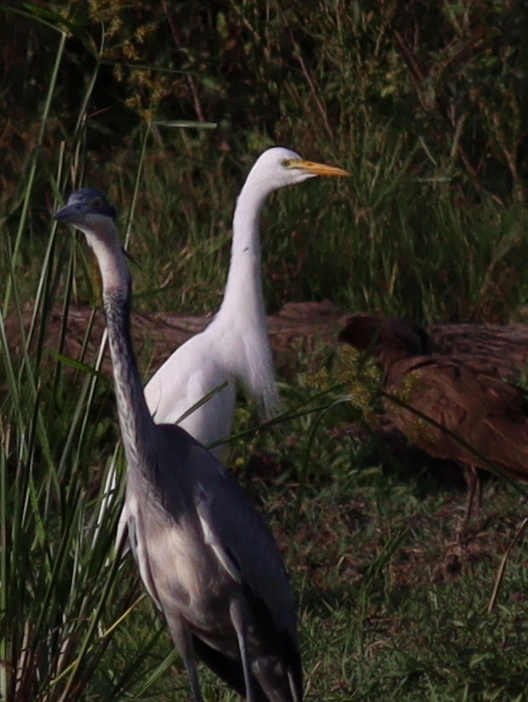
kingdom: Animalia
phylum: Chordata
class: Aves
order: Pelecaniformes
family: Ardeidae
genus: Egretta
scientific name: Egretta intermedia
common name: Intermediate egret
